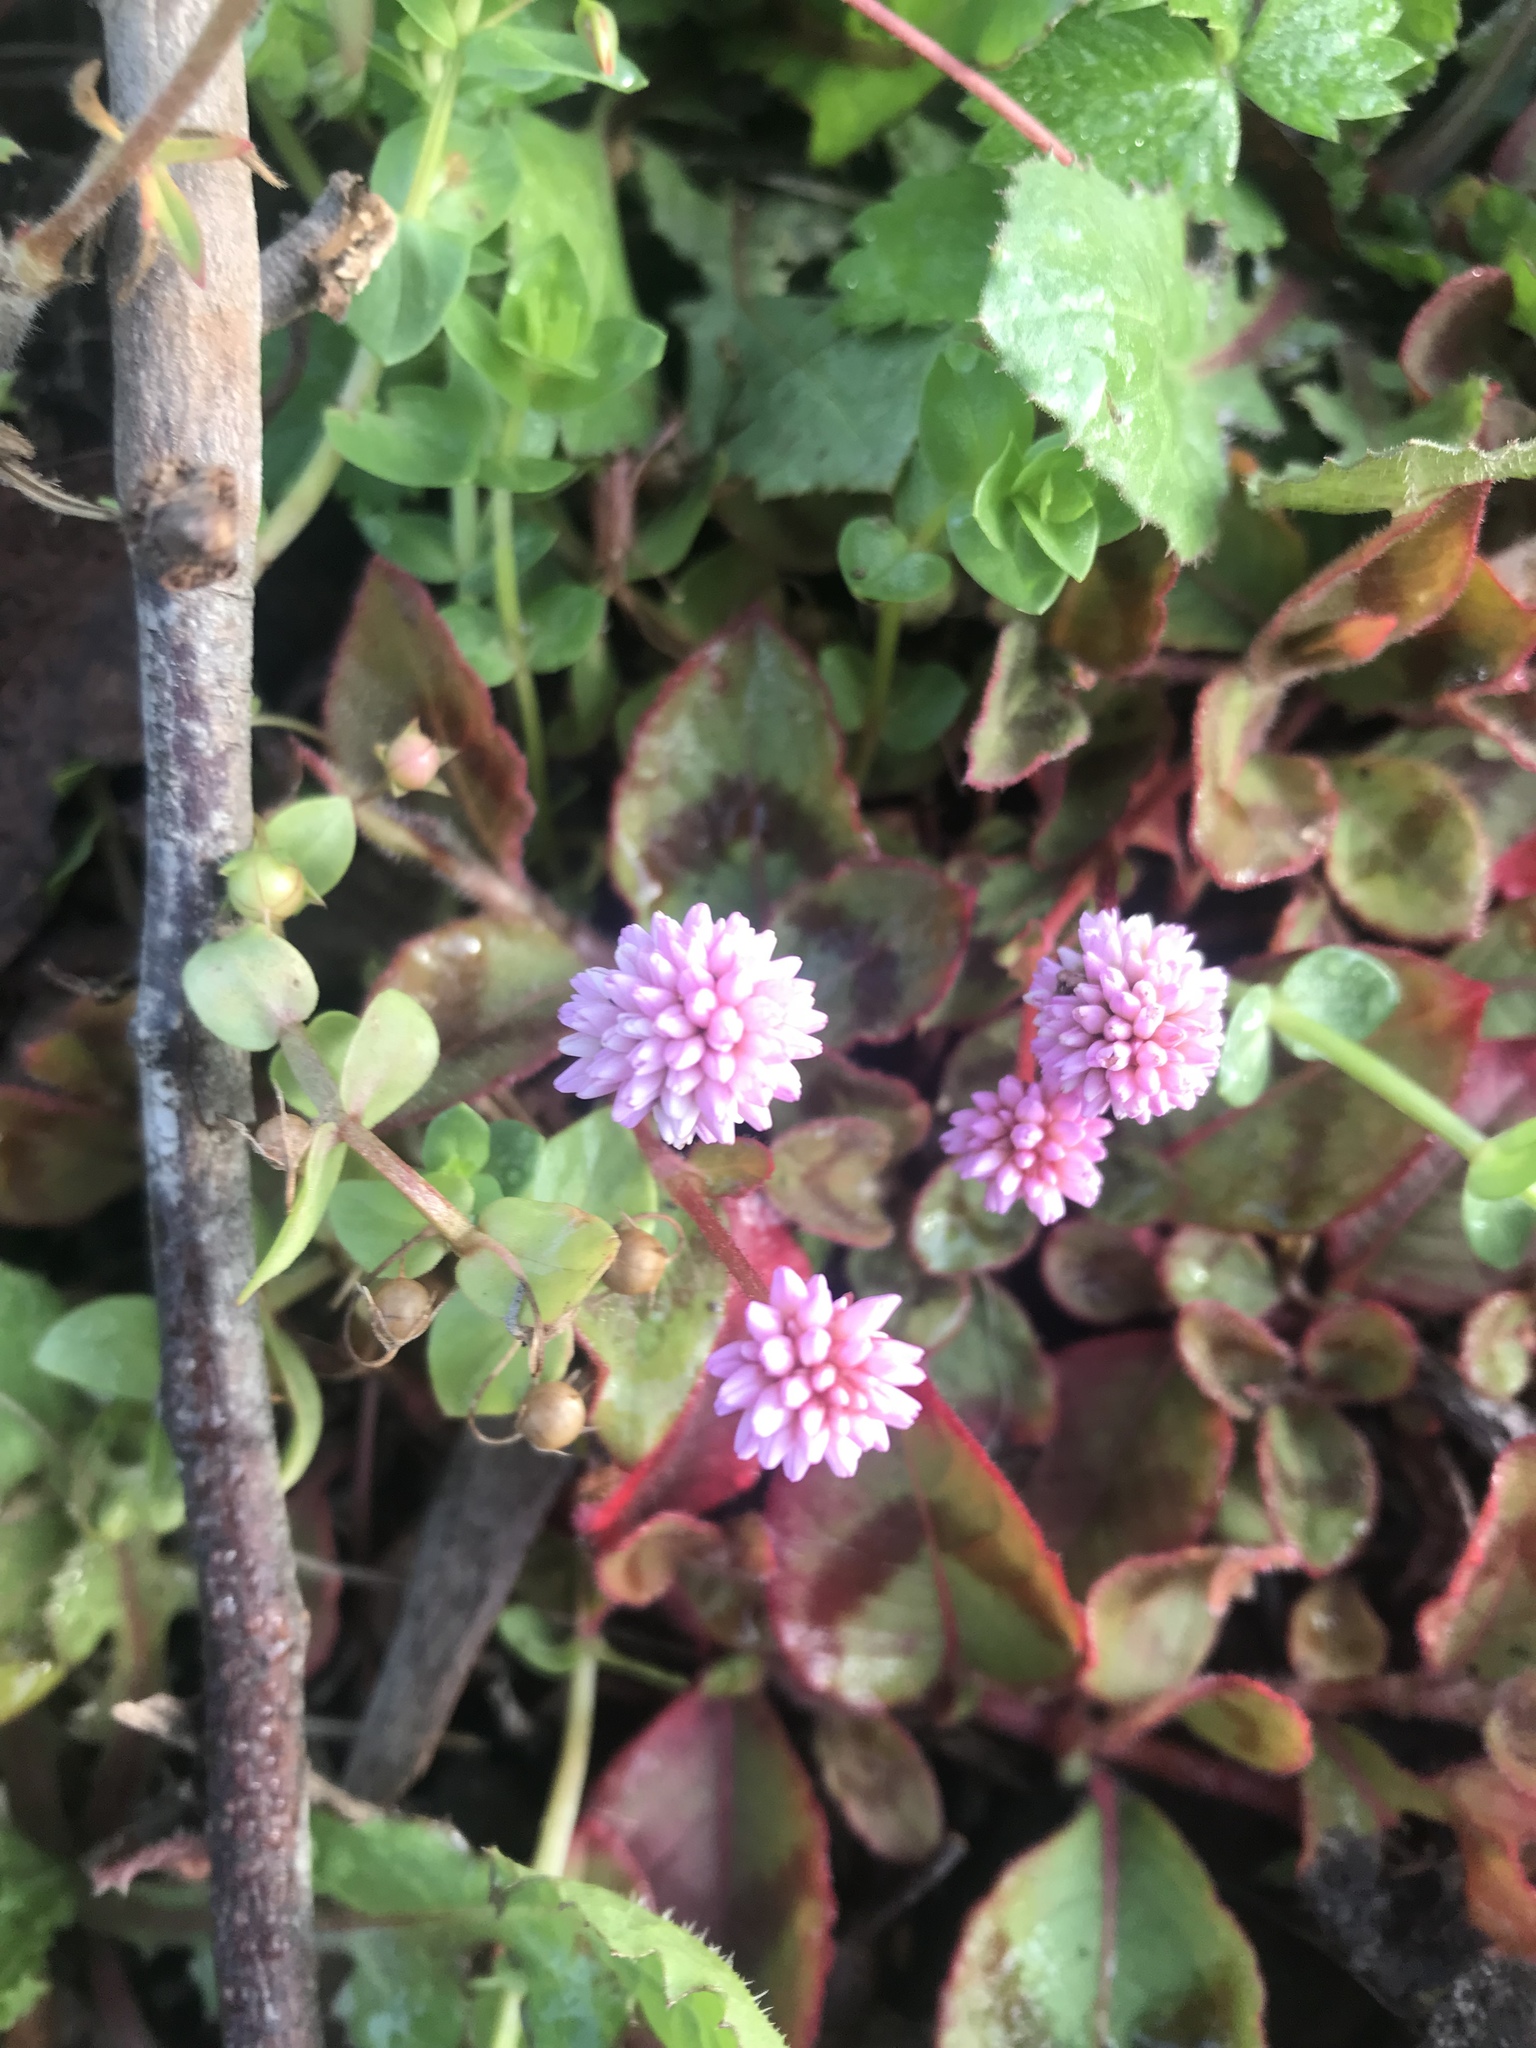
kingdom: Plantae
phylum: Tracheophyta
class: Magnoliopsida
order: Caryophyllales
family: Polygonaceae
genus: Persicaria
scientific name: Persicaria capitata
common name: Pinkhead smartweed
